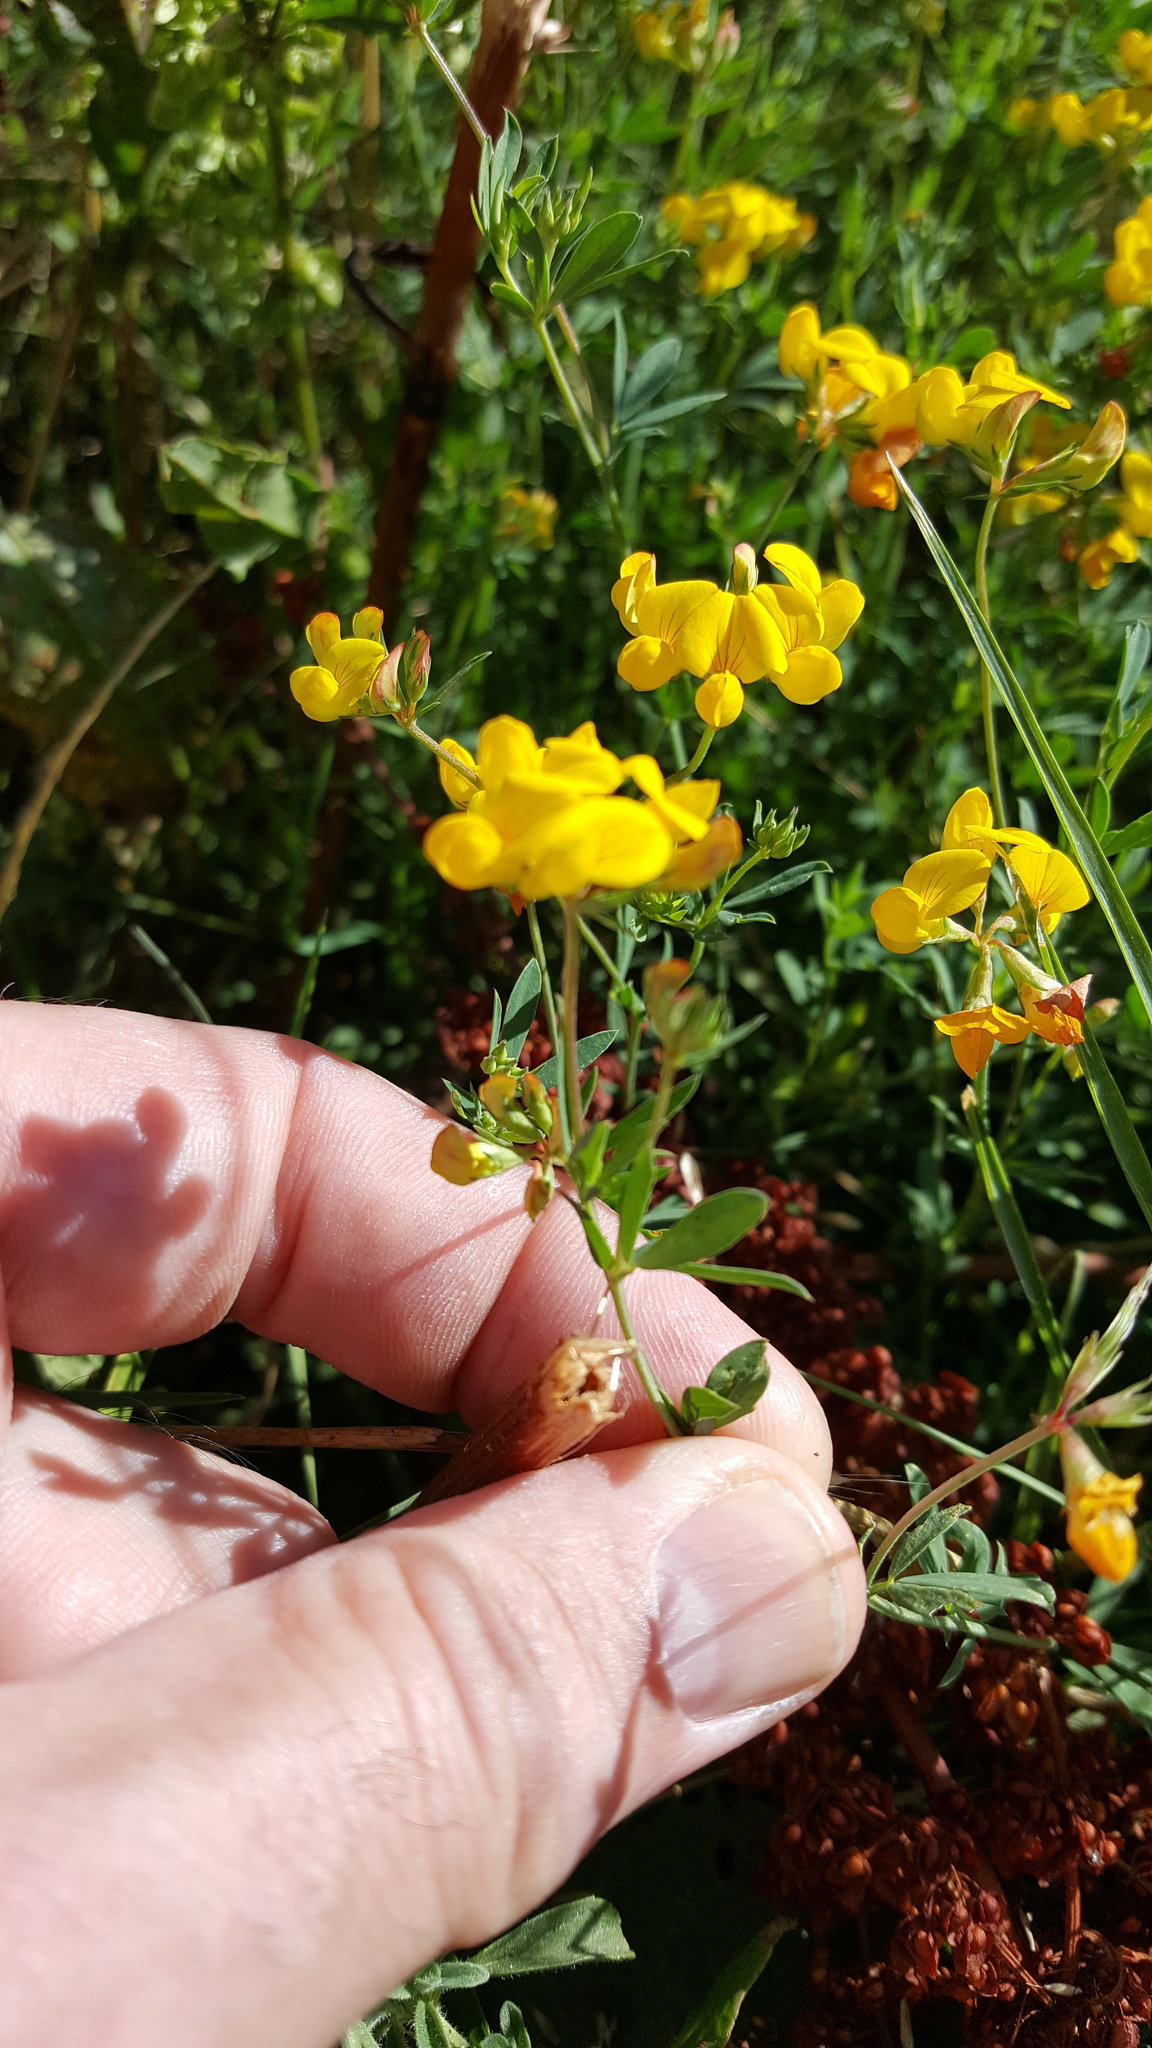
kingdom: Plantae
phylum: Tracheophyta
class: Magnoliopsida
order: Fabales
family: Fabaceae
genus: Lotus
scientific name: Lotus corniculatus
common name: Common bird's-foot-trefoil
